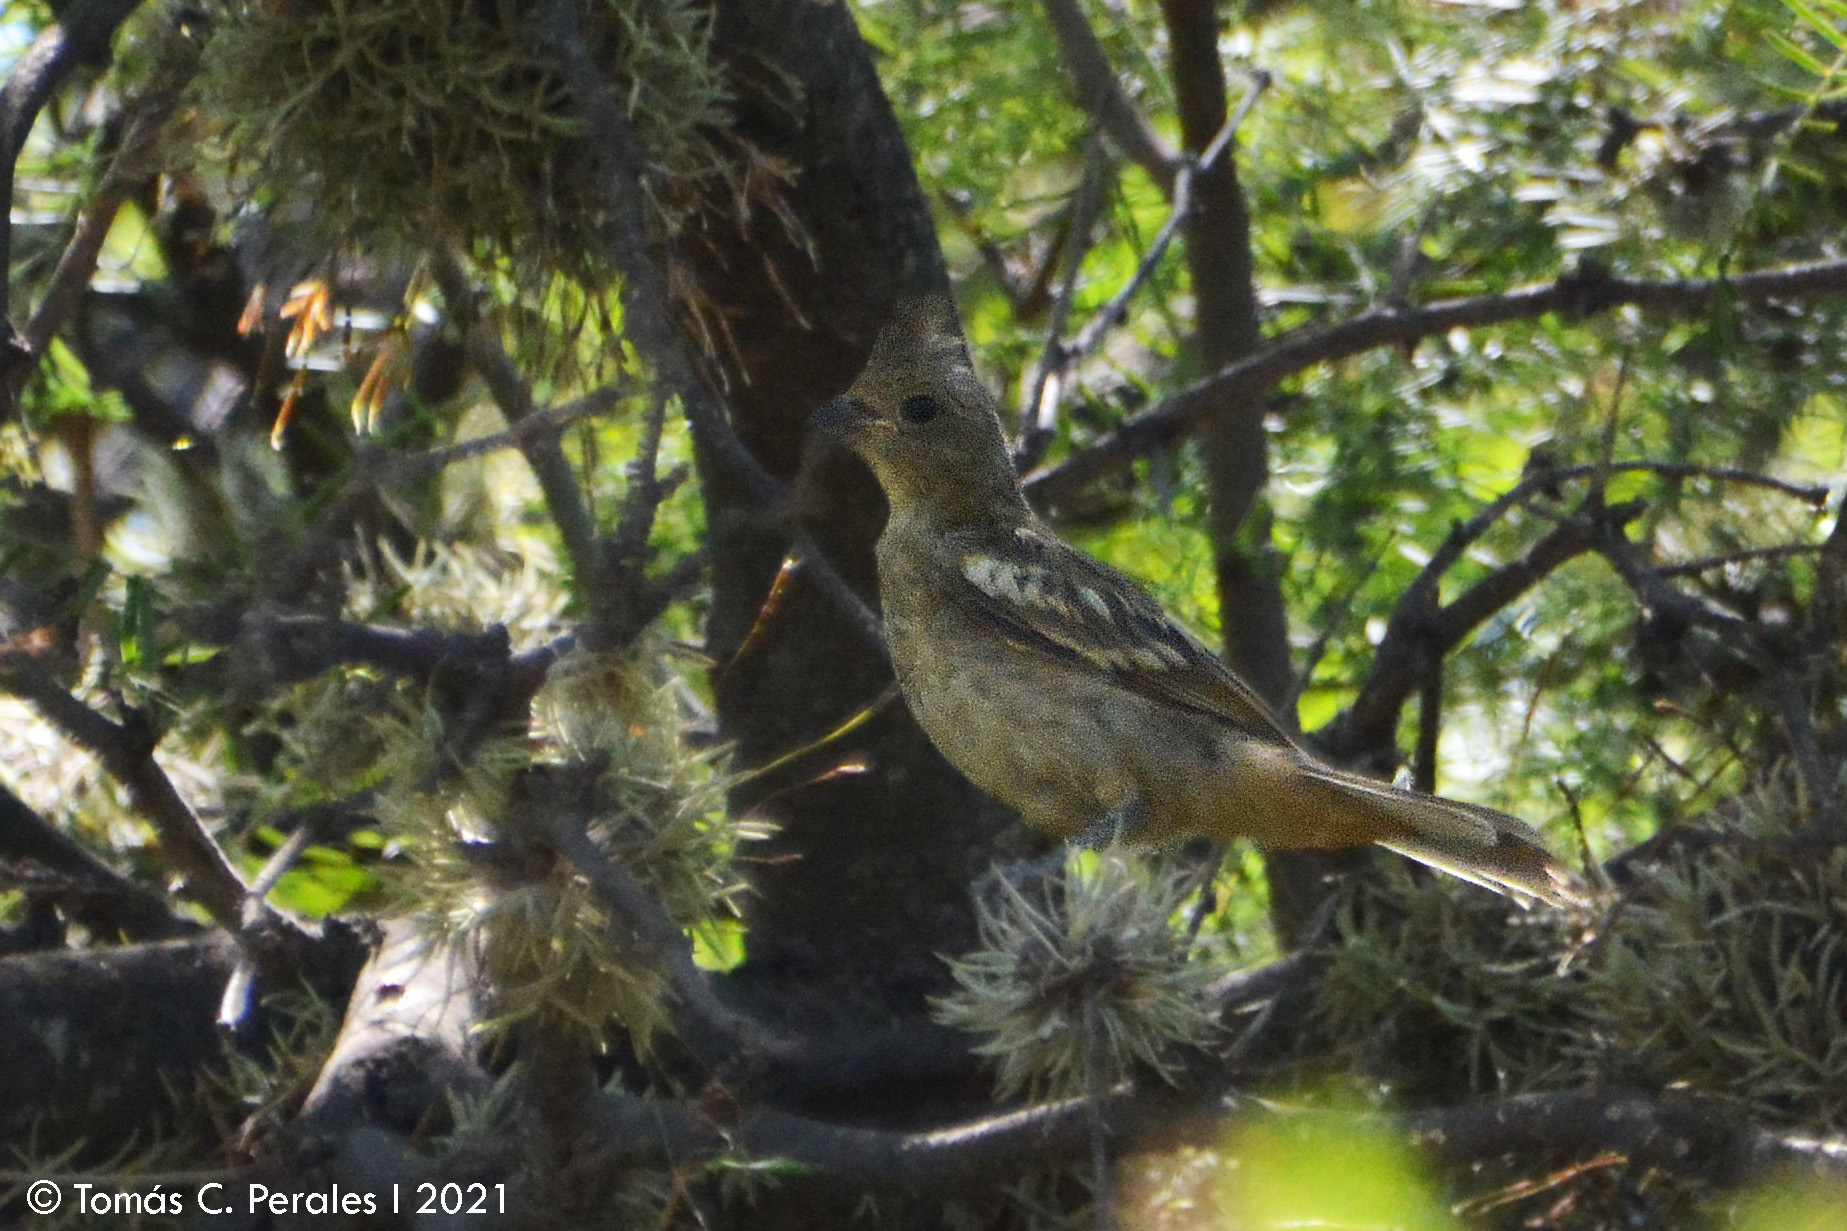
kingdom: Animalia
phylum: Chordata
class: Aves
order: Passeriformes
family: Cotingidae
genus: Phytotoma
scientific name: Phytotoma rutila
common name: White-tipped plantcutter
